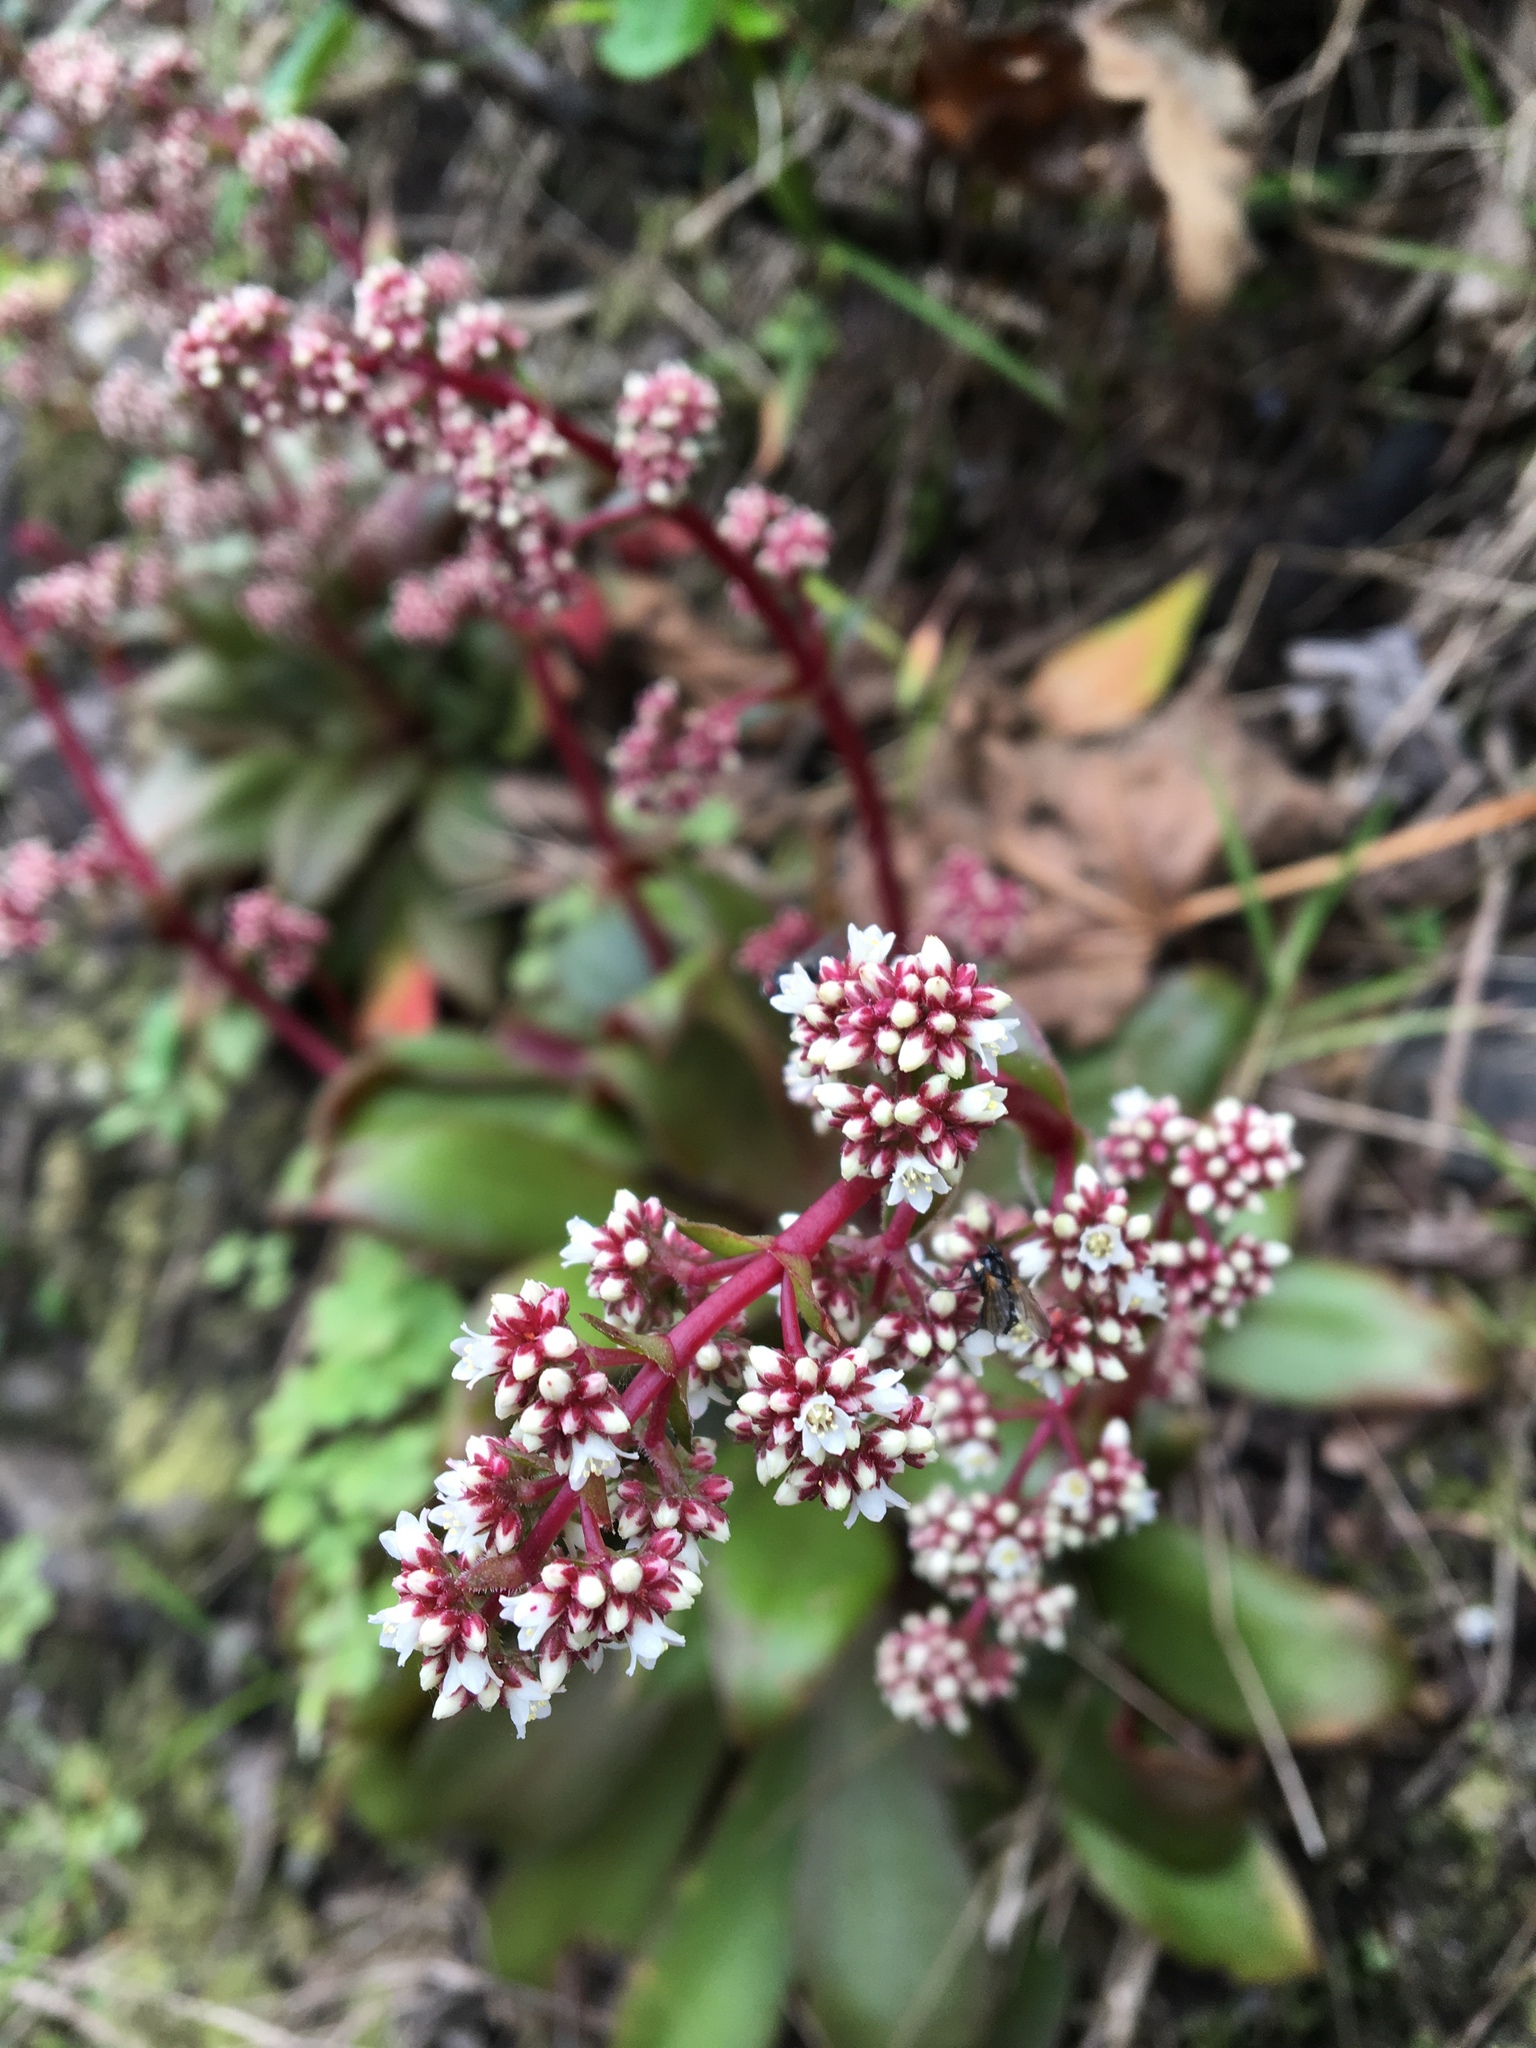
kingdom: Plantae
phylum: Tracheophyta
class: Magnoliopsida
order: Saxifragales
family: Crassulaceae
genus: Crassula
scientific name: Crassula orbicularis
